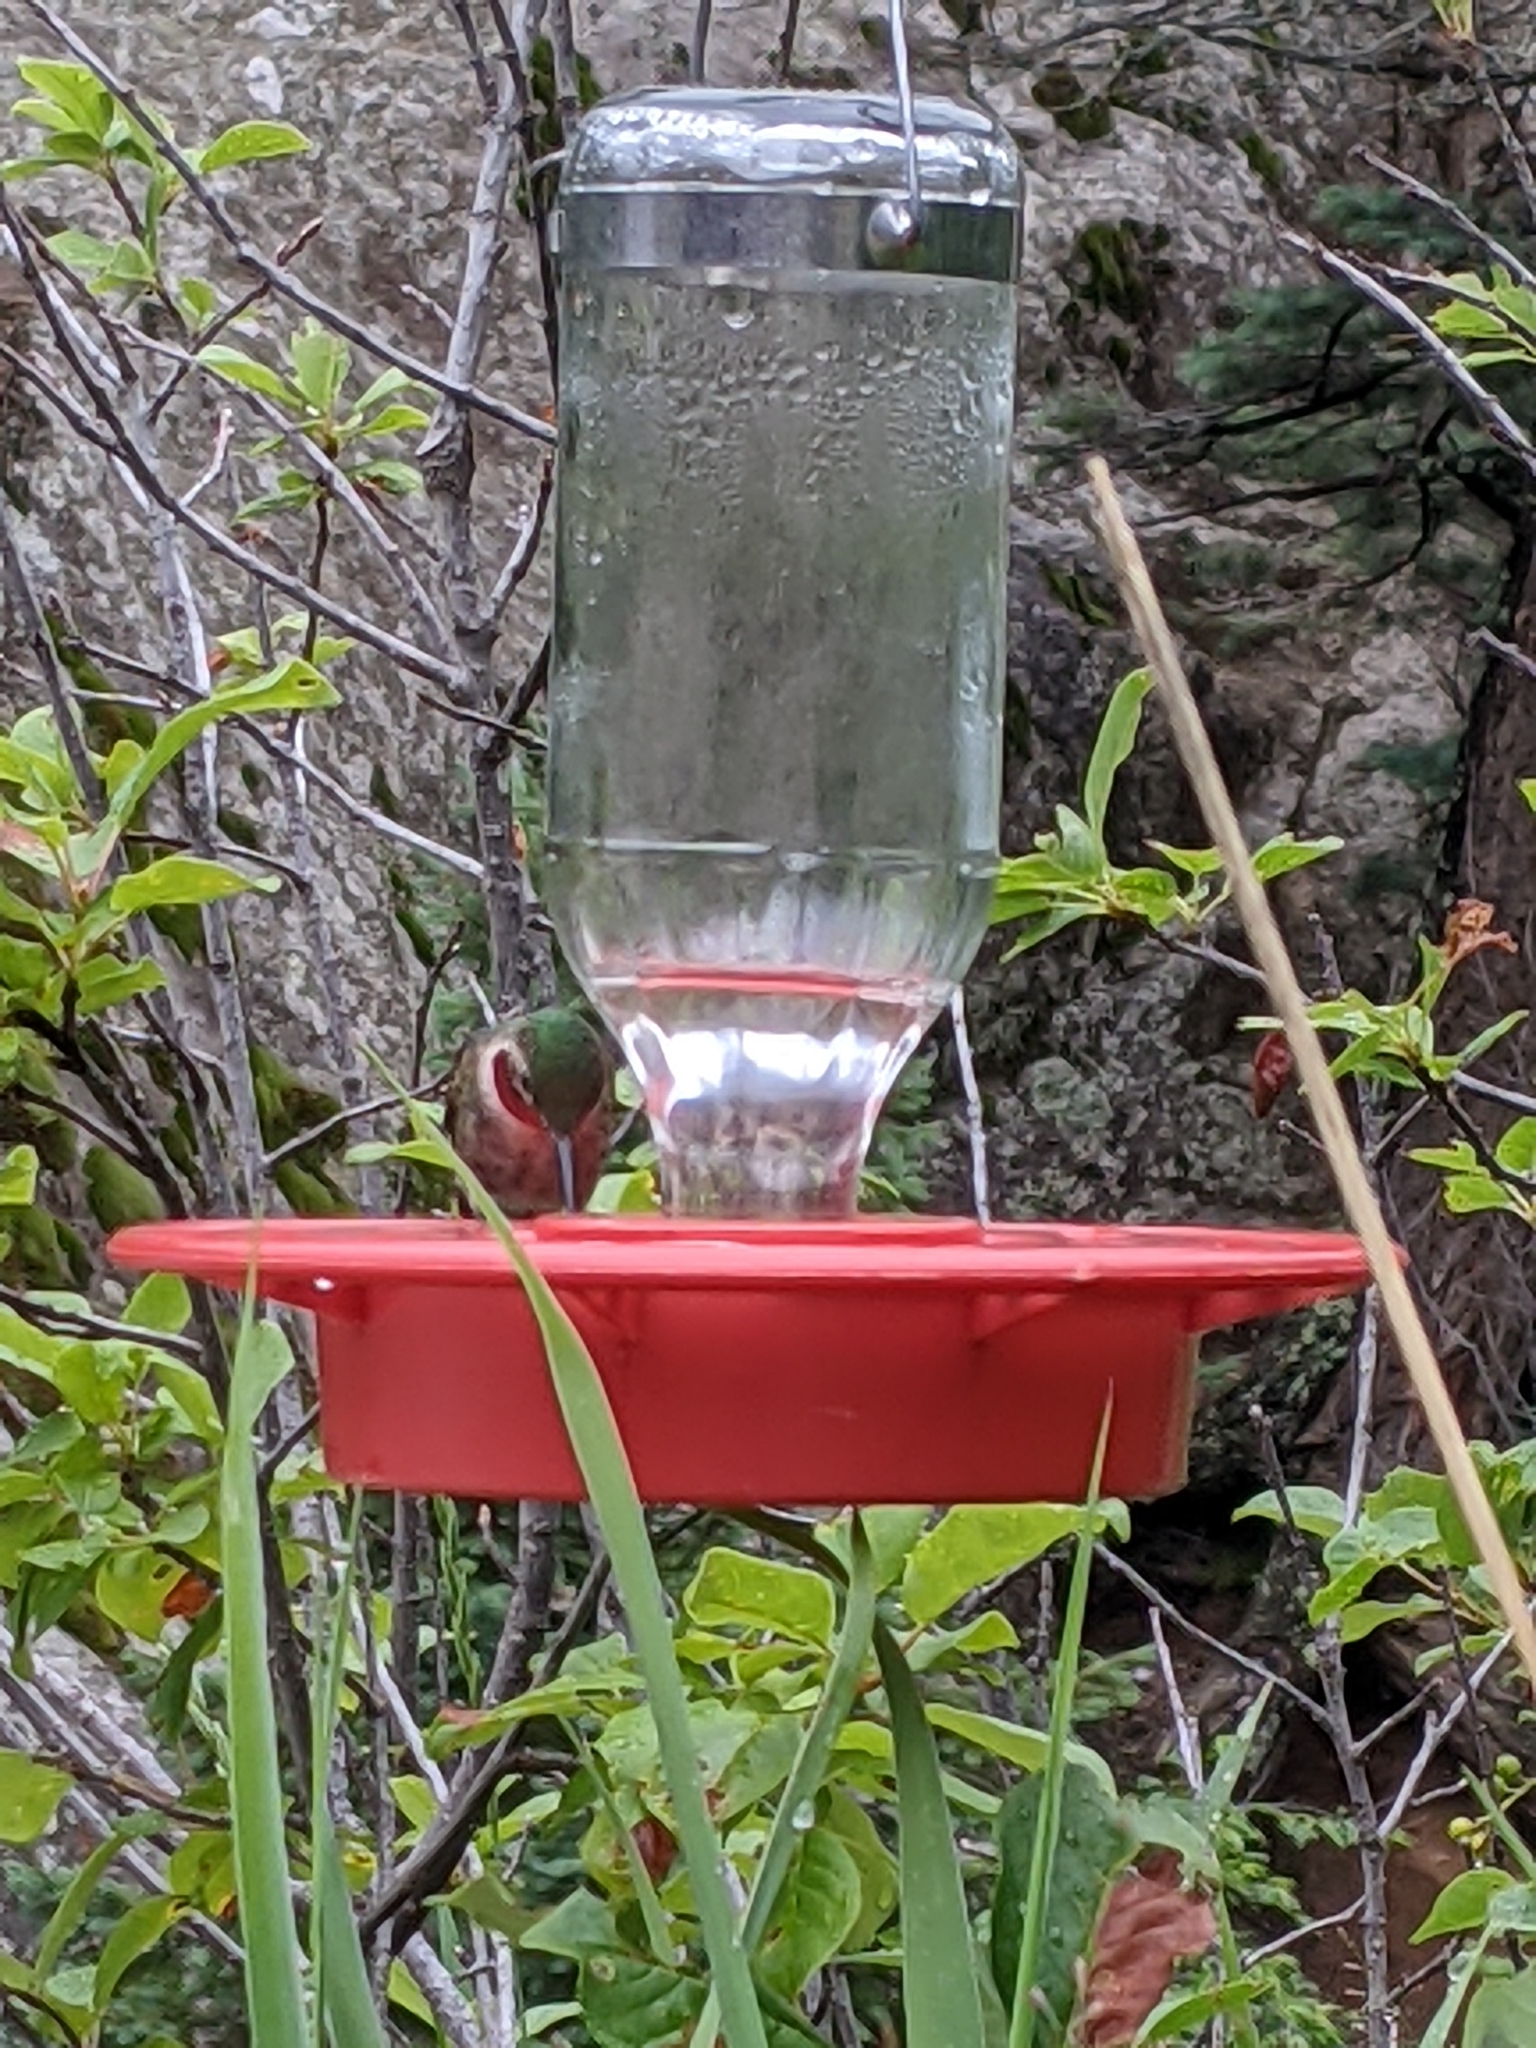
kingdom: Animalia
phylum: Chordata
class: Aves
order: Apodiformes
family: Trochilidae
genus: Selasphorus
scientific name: Selasphorus platycercus
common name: Broad-tailed hummingbird
